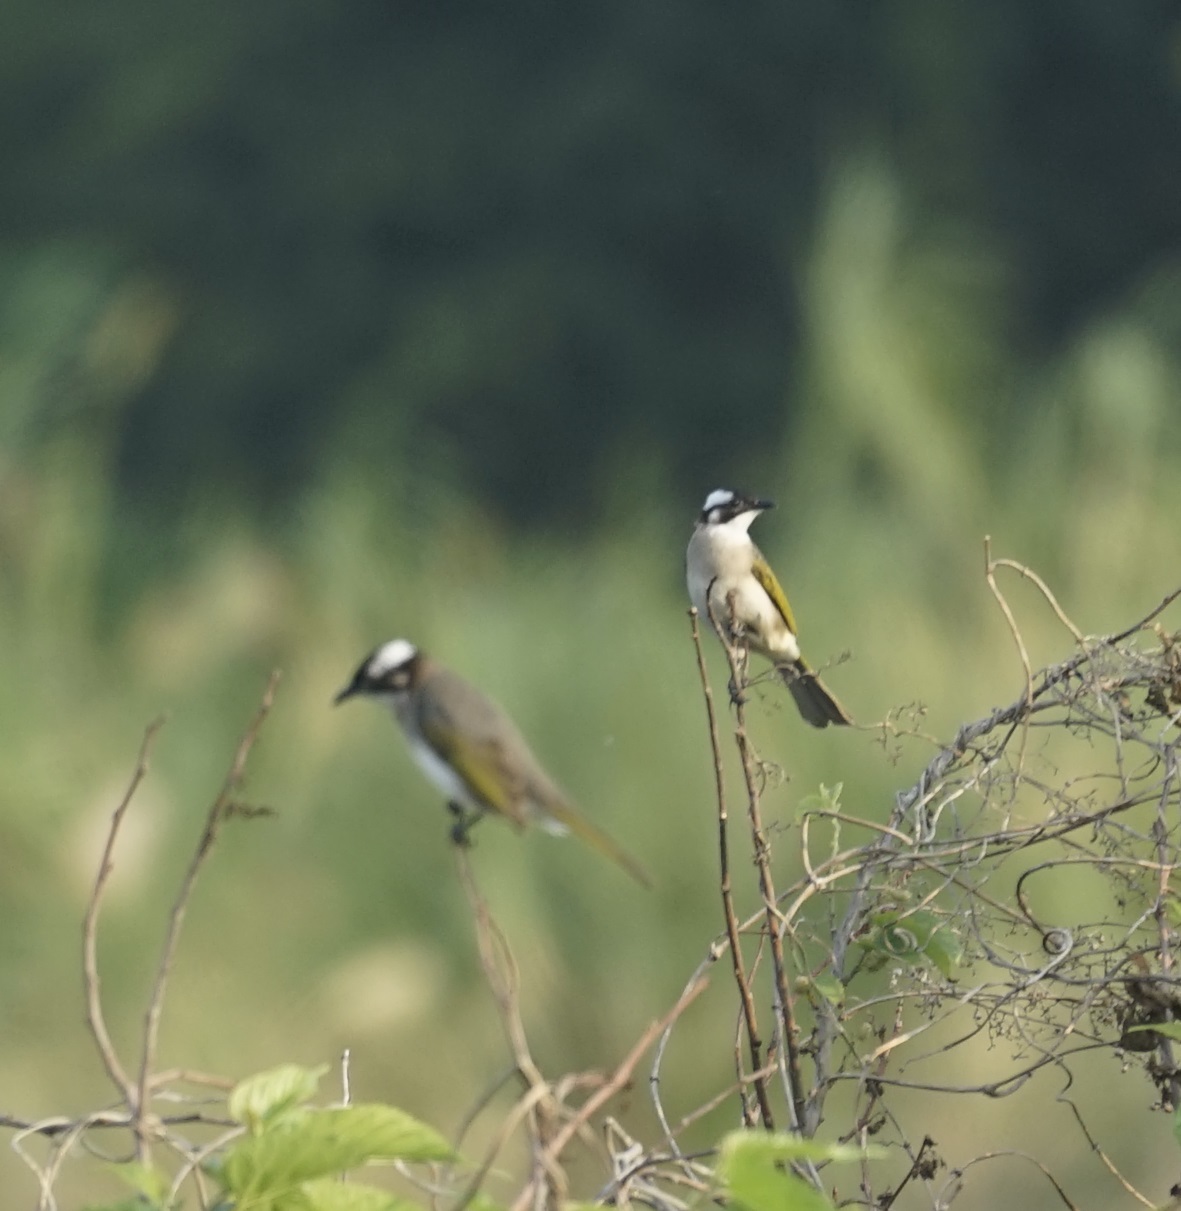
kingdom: Animalia
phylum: Chordata
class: Aves
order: Passeriformes
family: Pycnonotidae
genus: Pycnonotus
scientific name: Pycnonotus sinensis
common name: Light-vented bulbul
